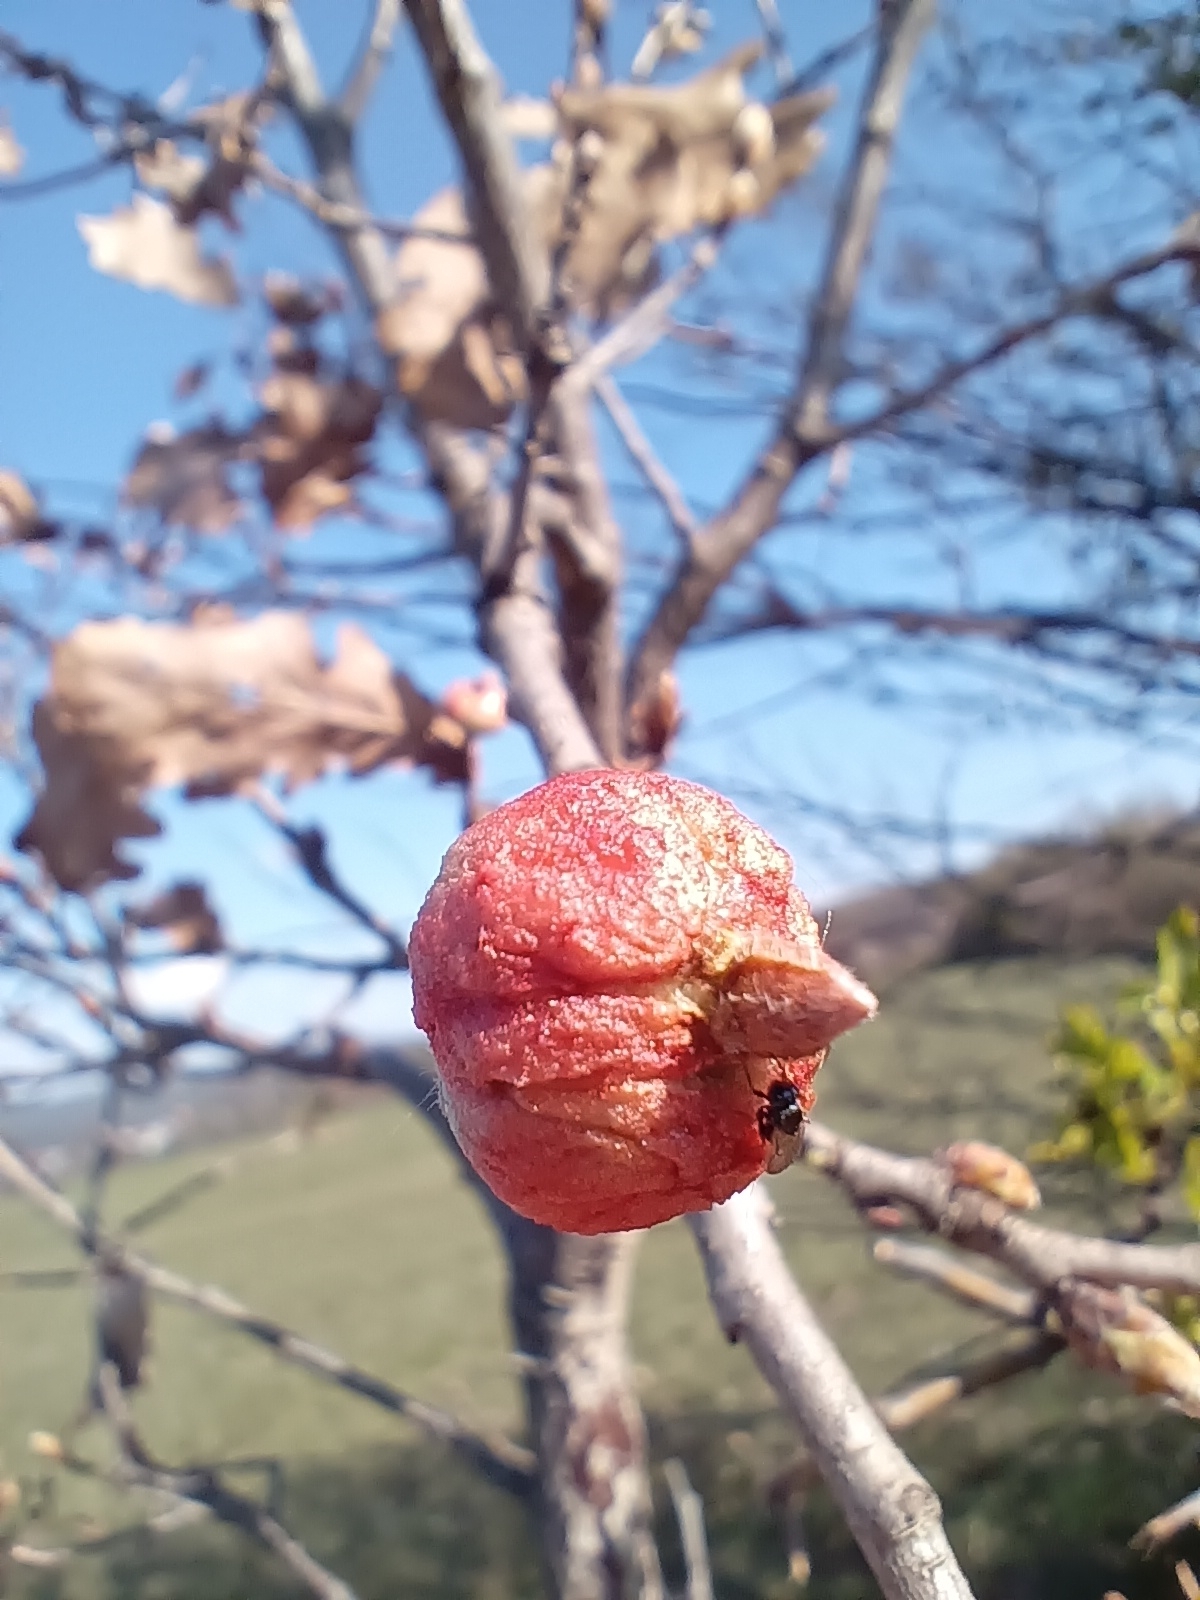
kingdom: Animalia
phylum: Arthropoda
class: Insecta
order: Hymenoptera
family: Cynipidae
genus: Biorhiza
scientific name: Biorhiza pallida
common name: Oak apple
